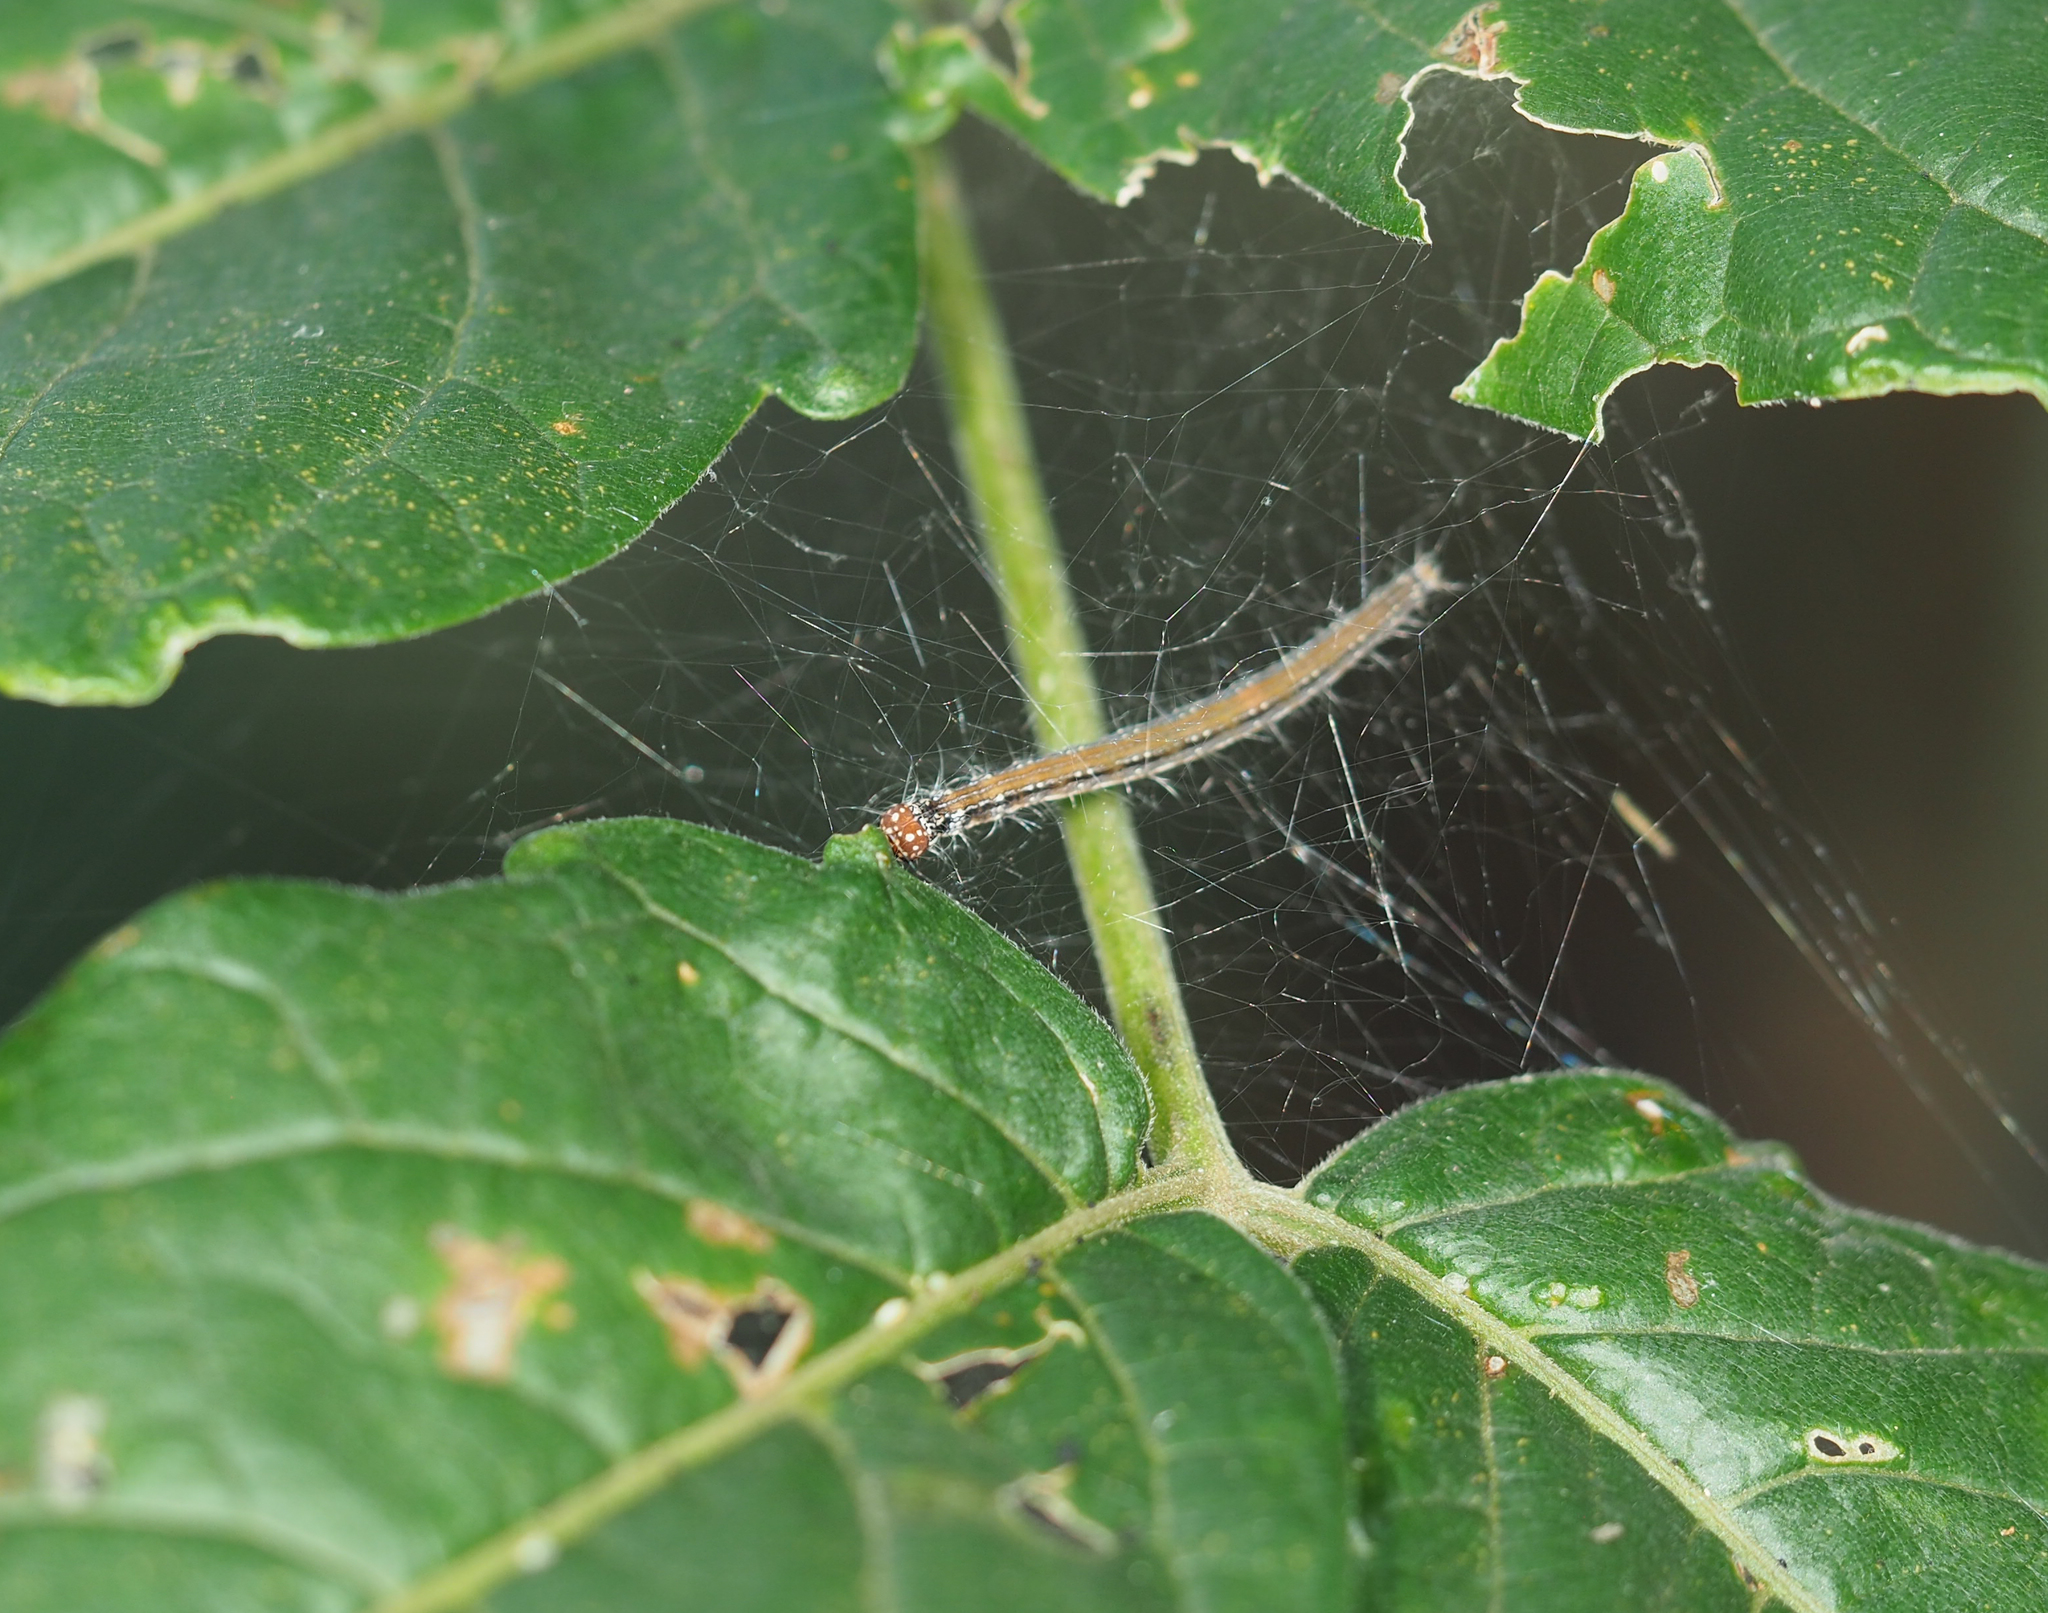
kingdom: Animalia
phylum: Arthropoda
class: Insecta
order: Lepidoptera
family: Attevidae
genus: Atteva
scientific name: Atteva punctella
